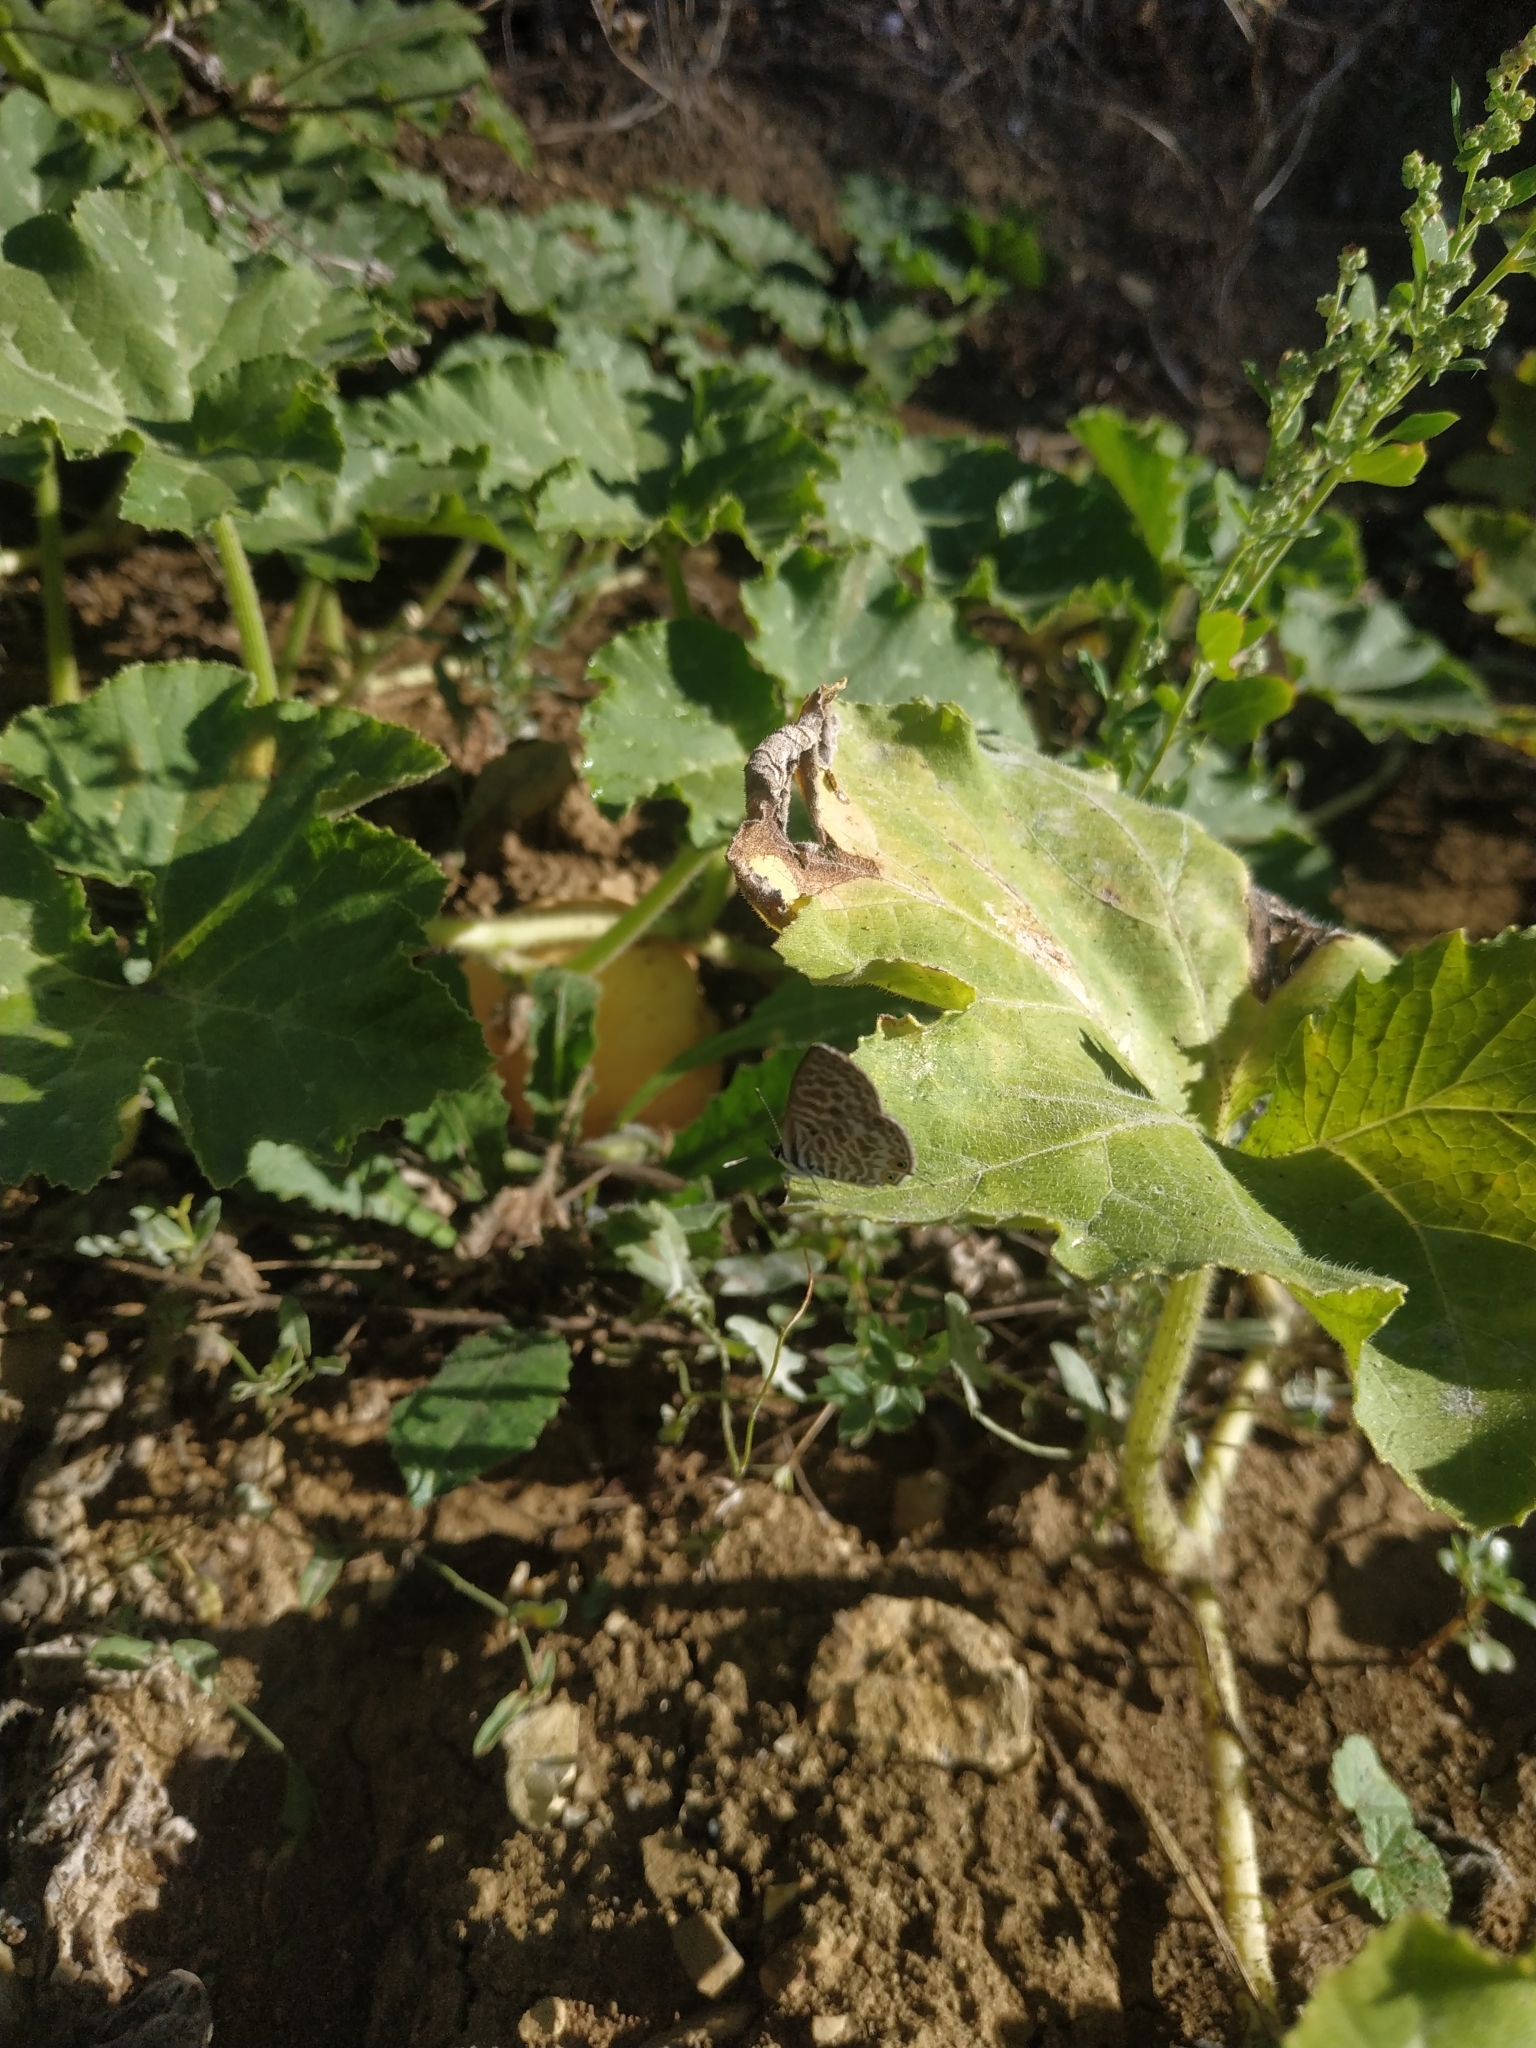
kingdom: Animalia
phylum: Arthropoda
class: Insecta
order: Lepidoptera
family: Lycaenidae
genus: Leptotes
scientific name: Leptotes pirithous
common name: Lang's short-tailed blue
